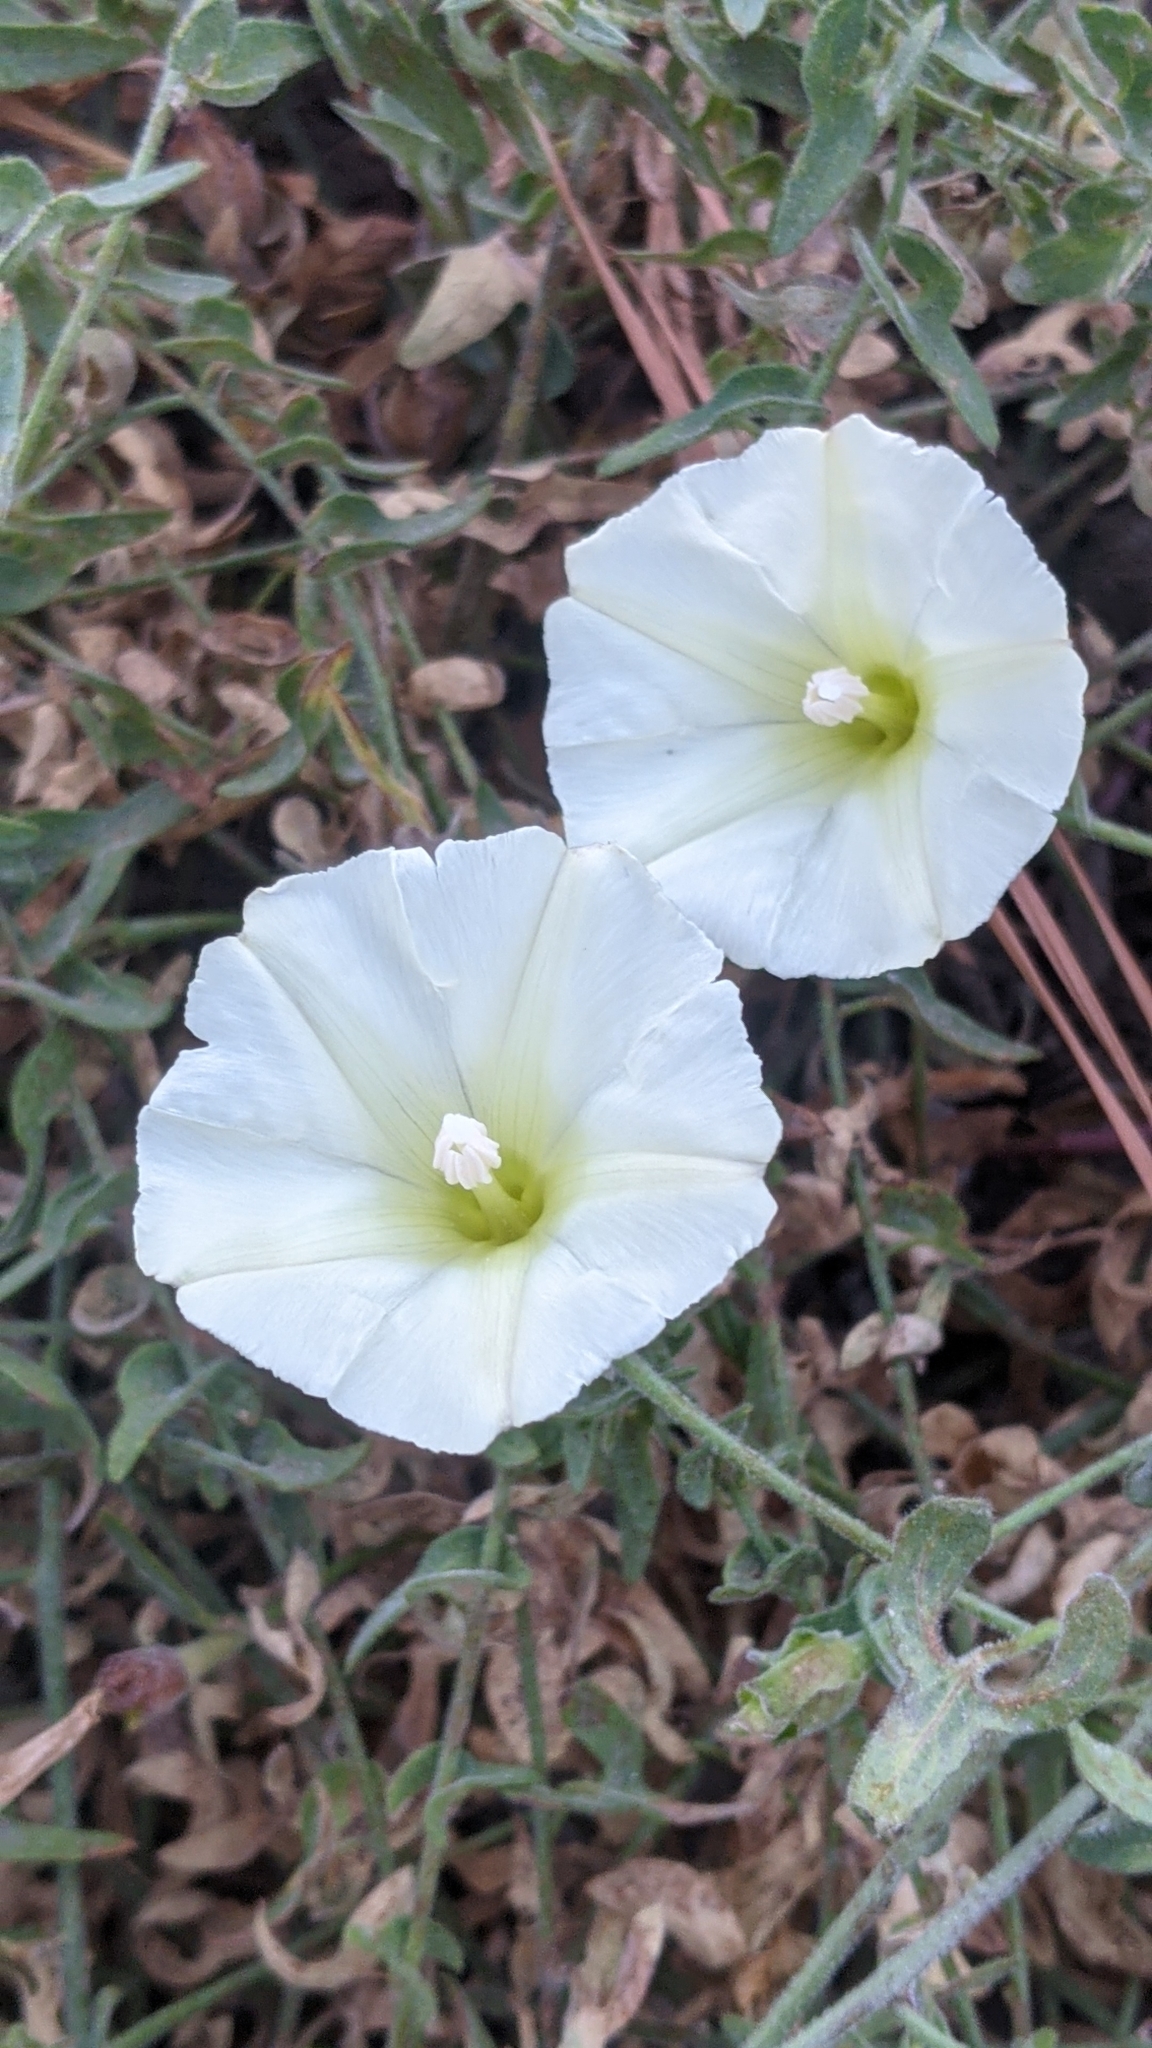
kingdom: Plantae
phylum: Tracheophyta
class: Magnoliopsida
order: Solanales
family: Convolvulaceae
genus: Calystegia
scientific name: Calystegia occidentalis
